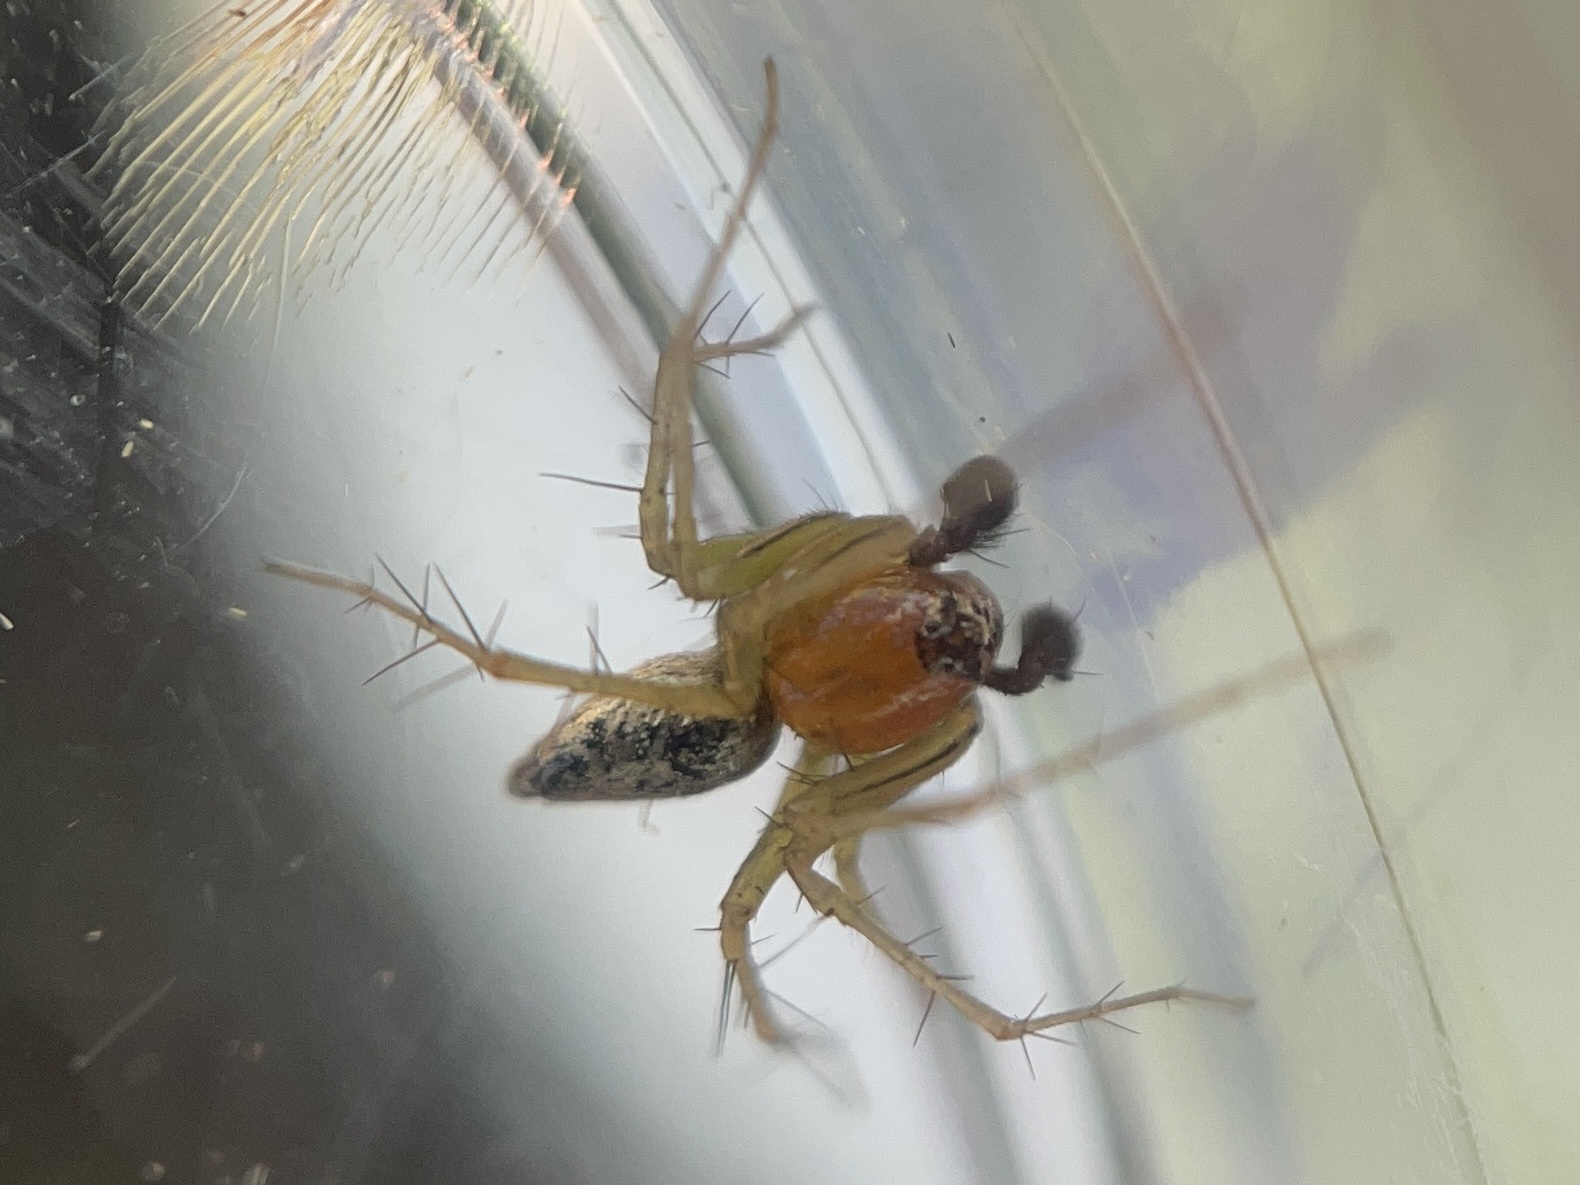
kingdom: Animalia
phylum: Arthropoda
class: Arachnida
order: Araneae
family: Oxyopidae
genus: Oxyopes
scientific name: Oxyopes salticus
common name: Lynx spiders
